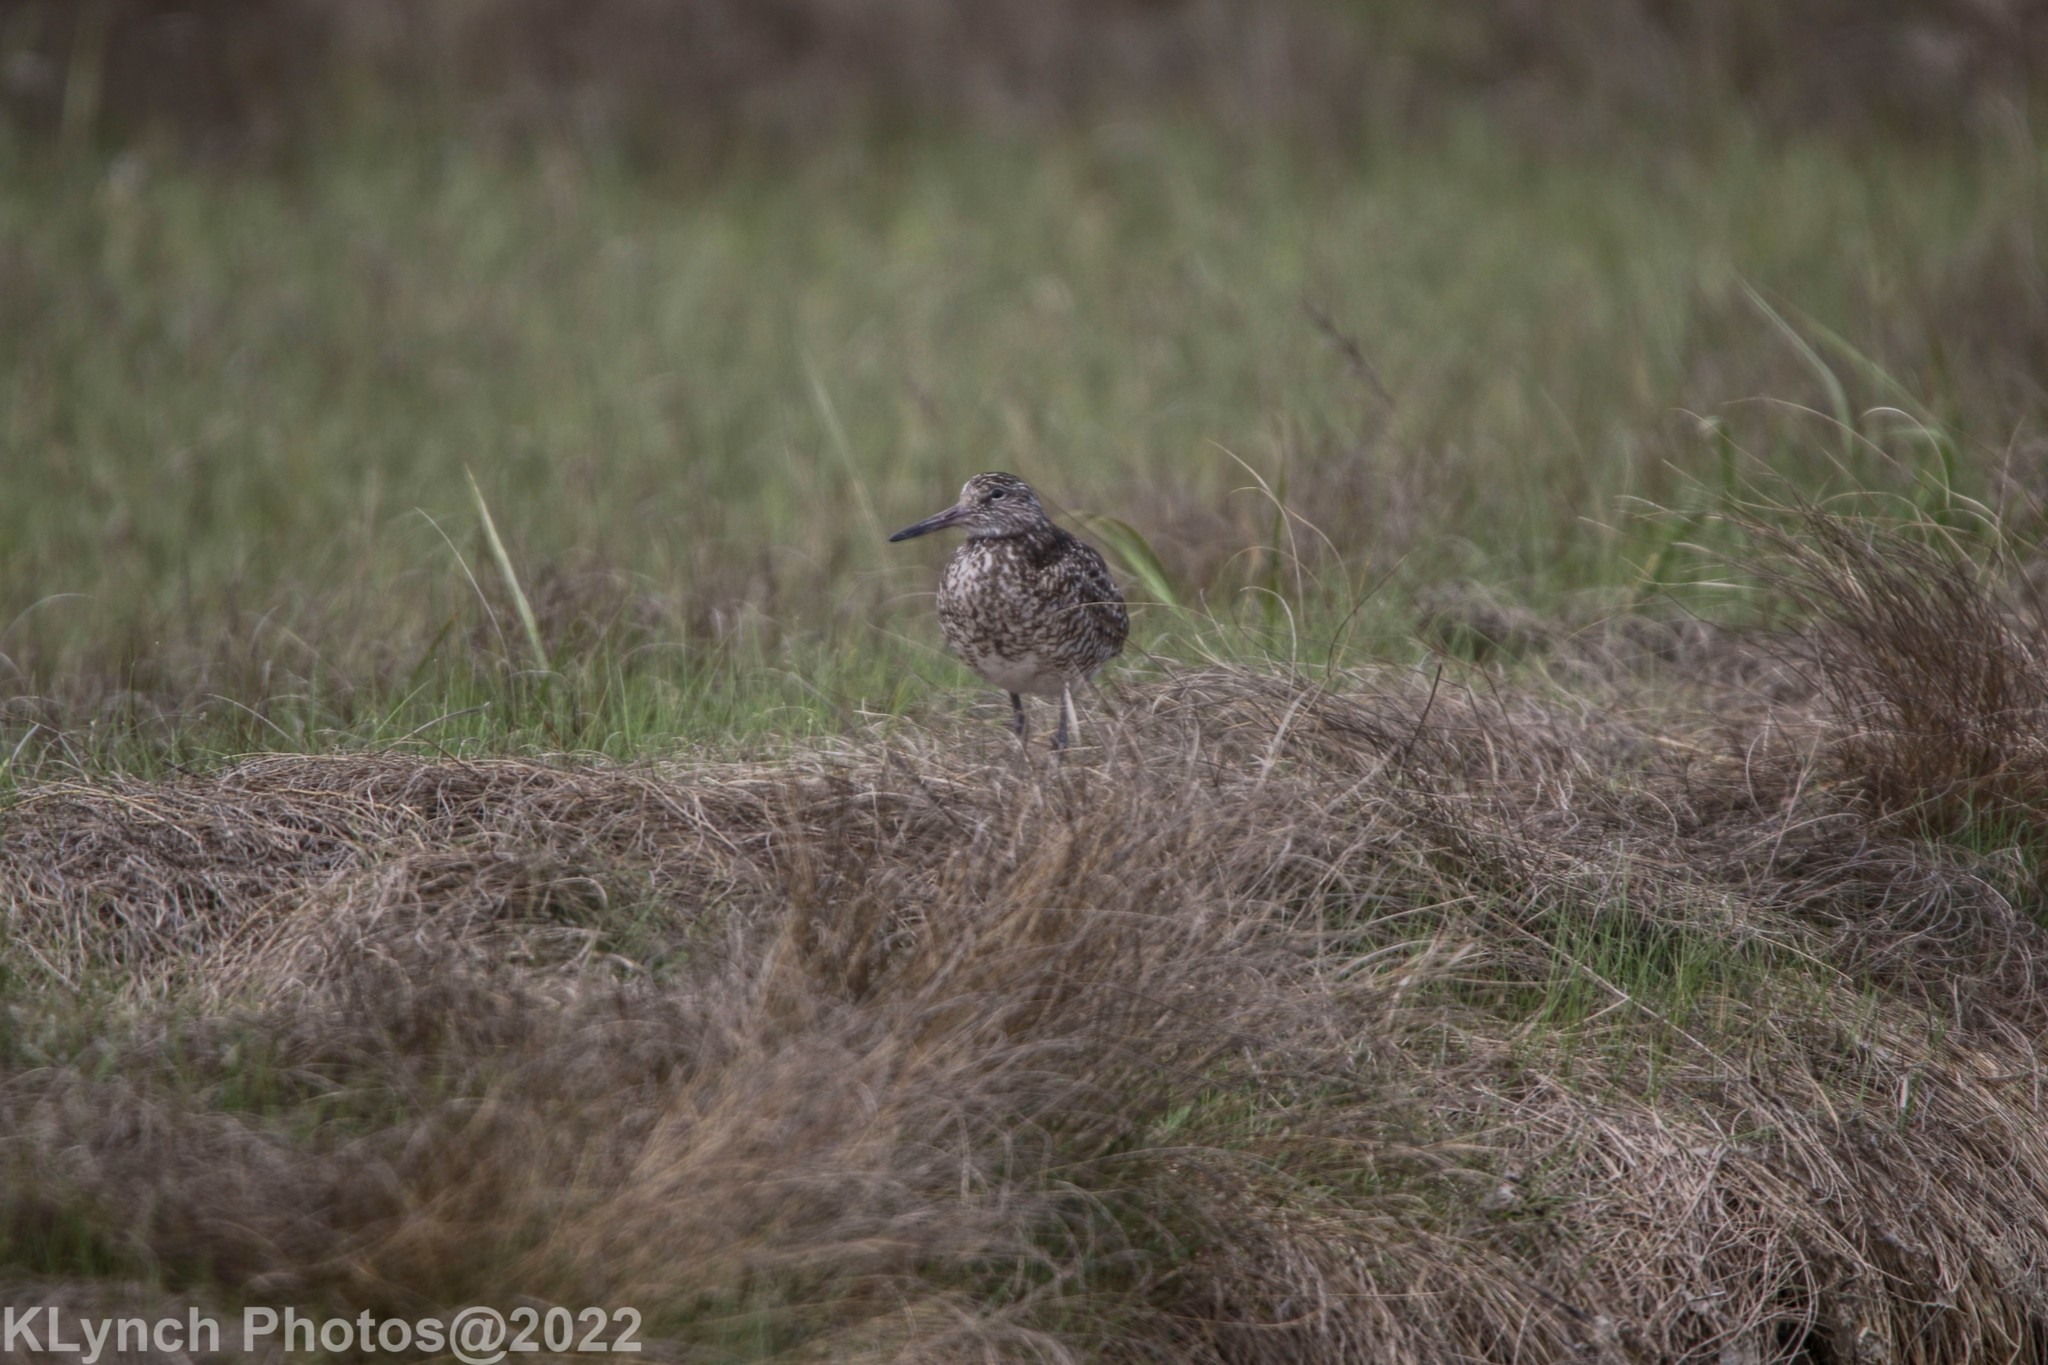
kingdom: Animalia
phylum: Chordata
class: Aves
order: Charadriiformes
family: Scolopacidae
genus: Tringa
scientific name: Tringa semipalmata
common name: Willet
